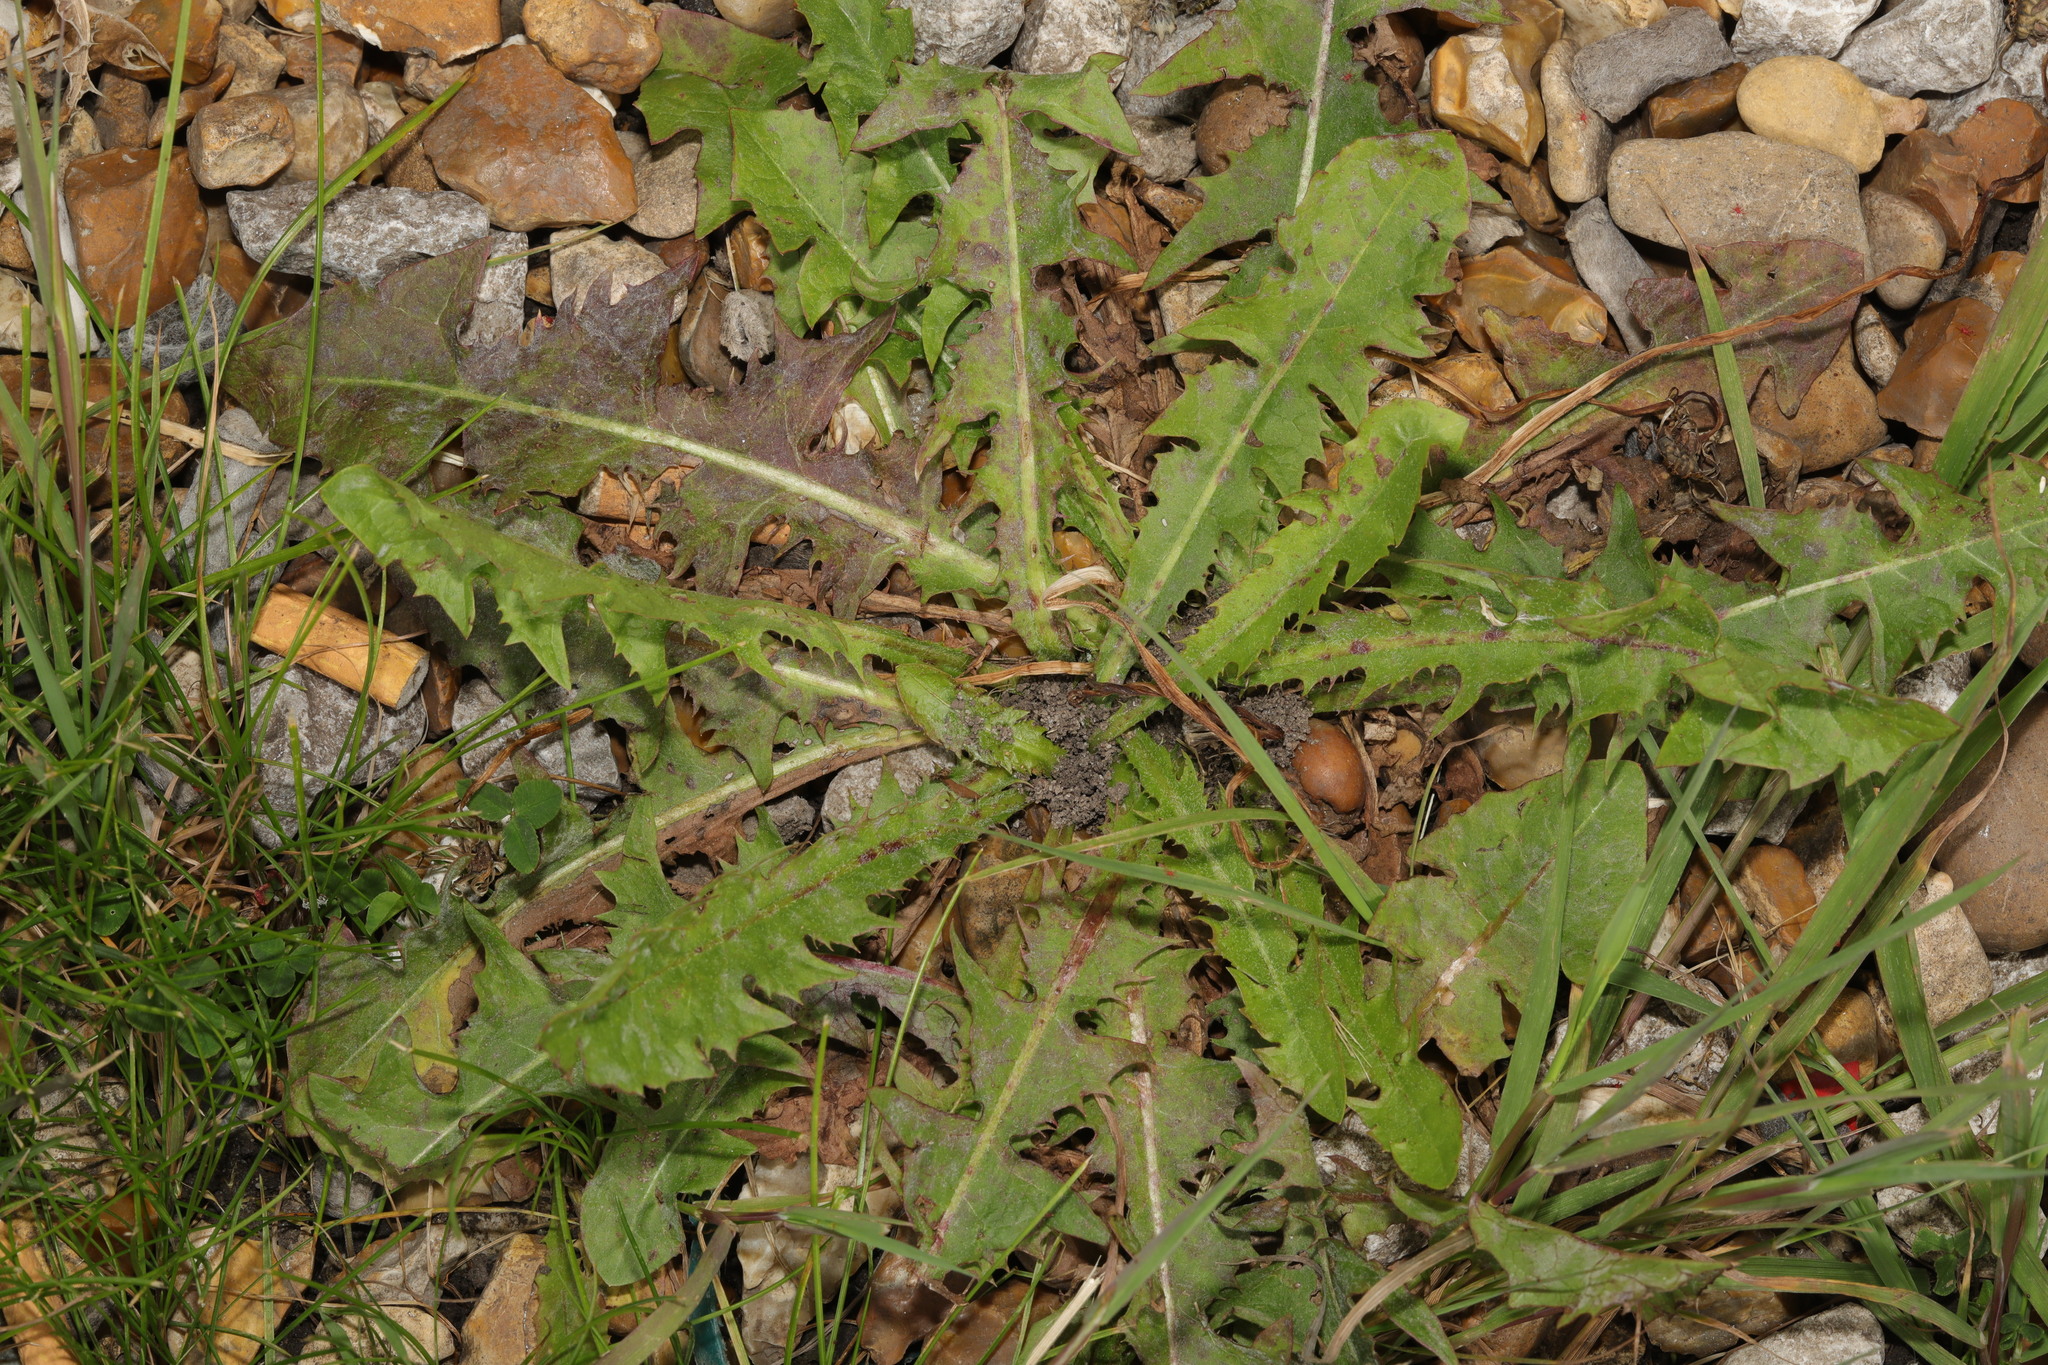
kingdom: Plantae
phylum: Tracheophyta
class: Magnoliopsida
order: Asterales
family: Asteraceae
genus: Taraxacum
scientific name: Taraxacum officinale
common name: Common dandelion
